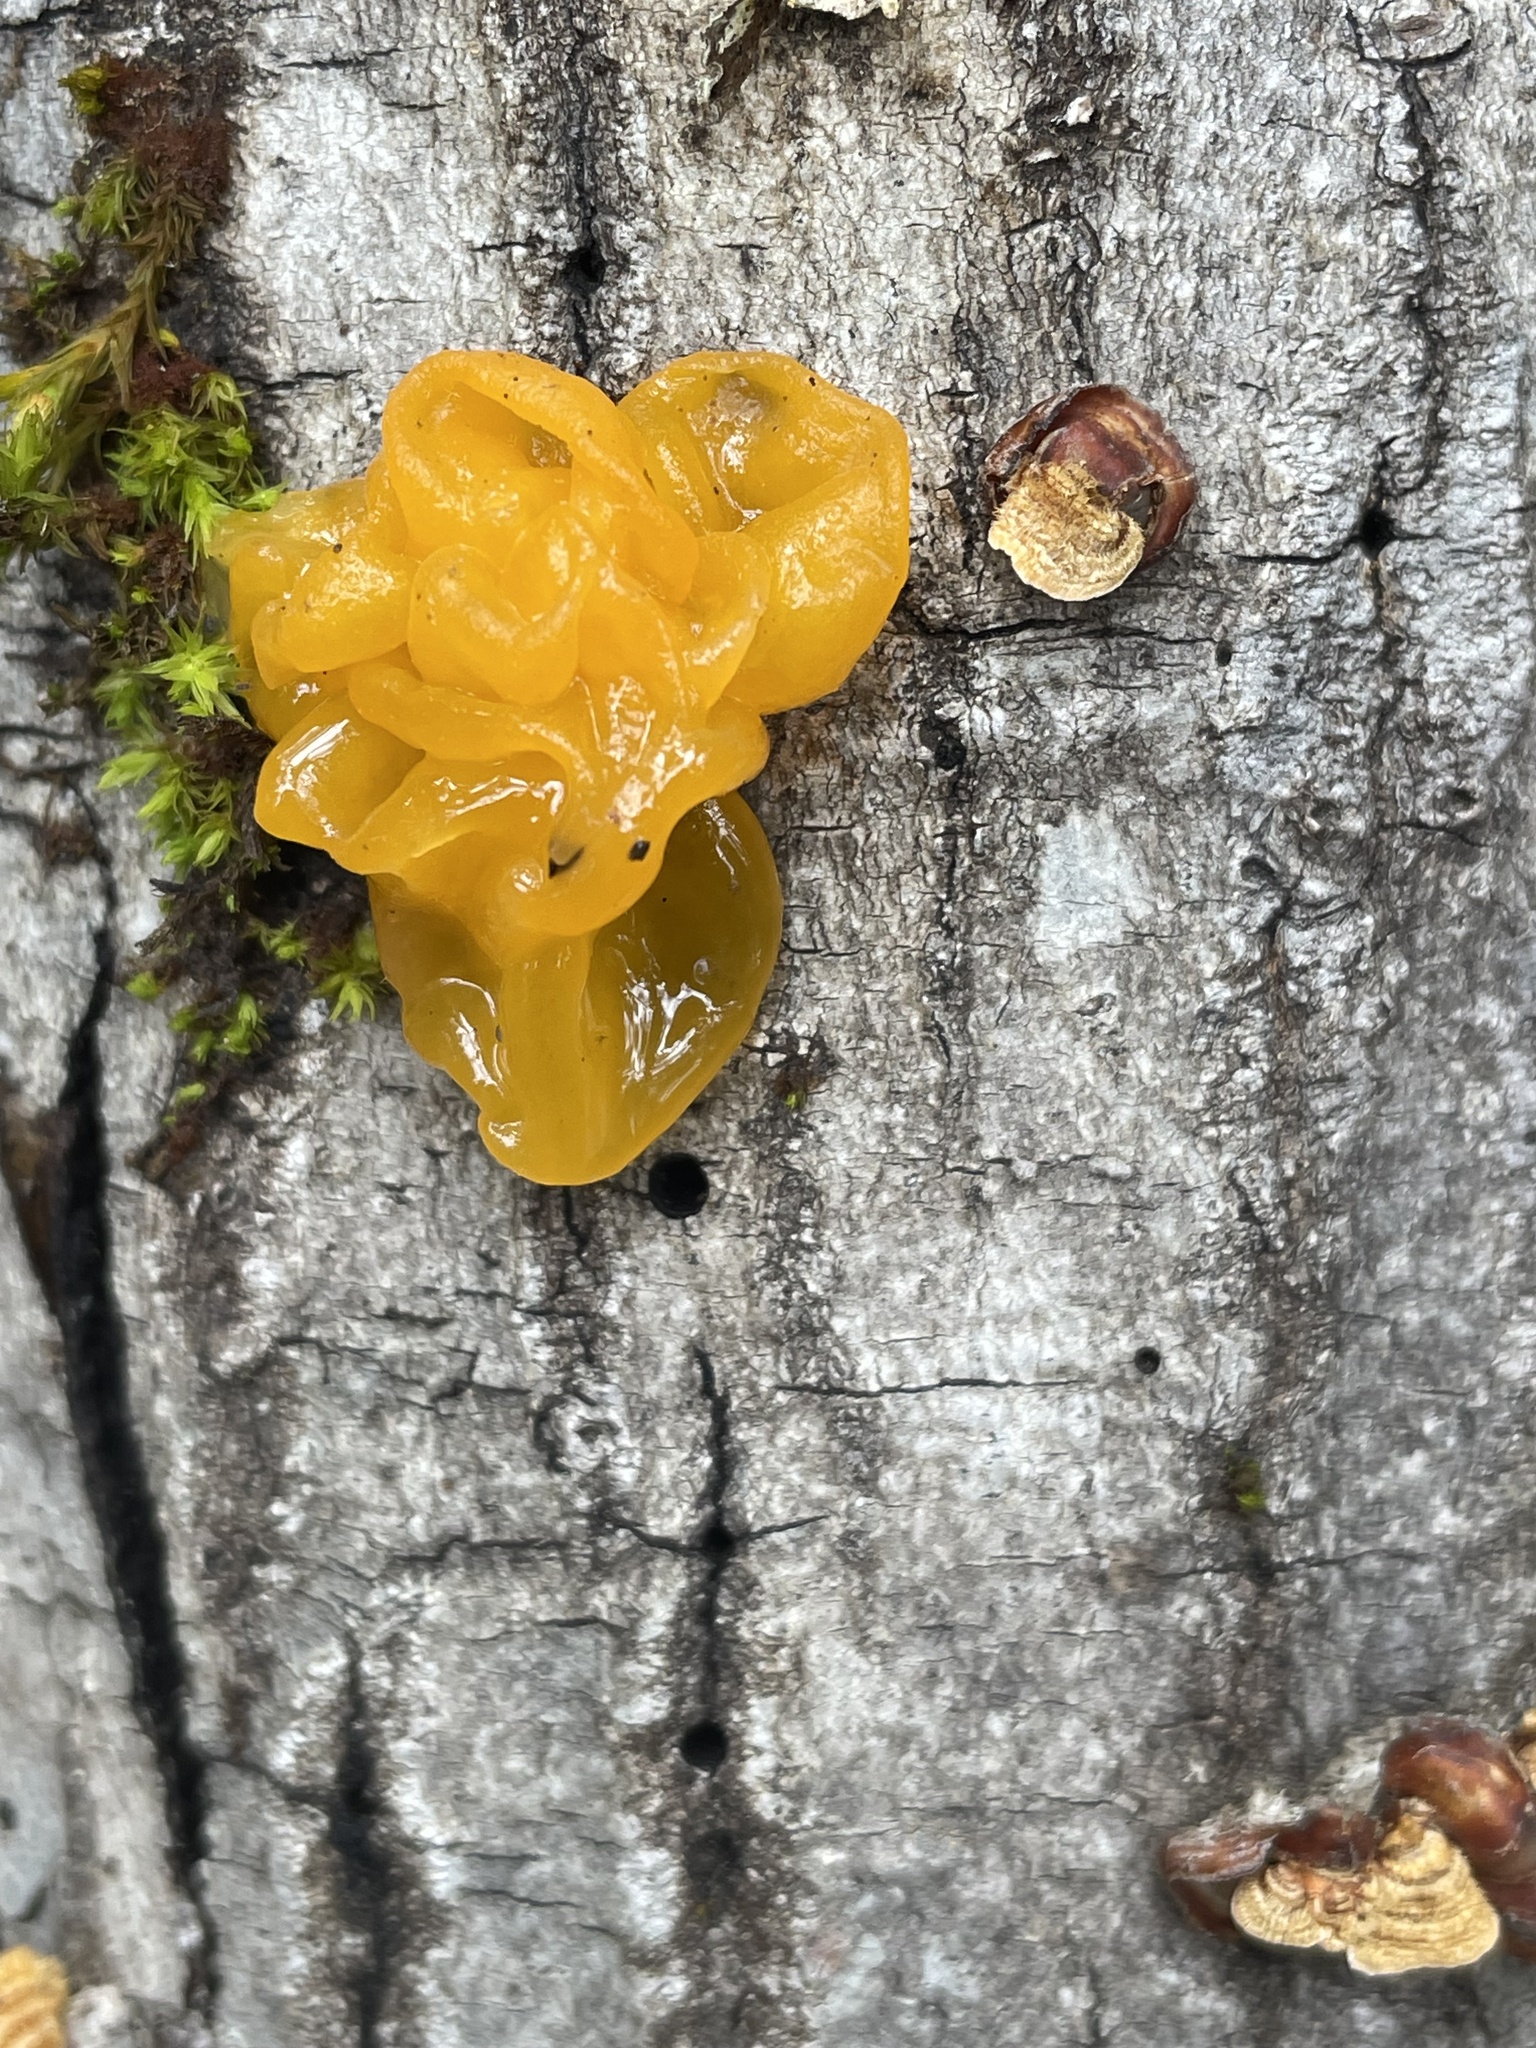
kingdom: Fungi
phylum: Basidiomycota
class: Tremellomycetes
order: Tremellales
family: Naemateliaceae
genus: Naematelia
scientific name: Naematelia aurantia
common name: Golden ear
